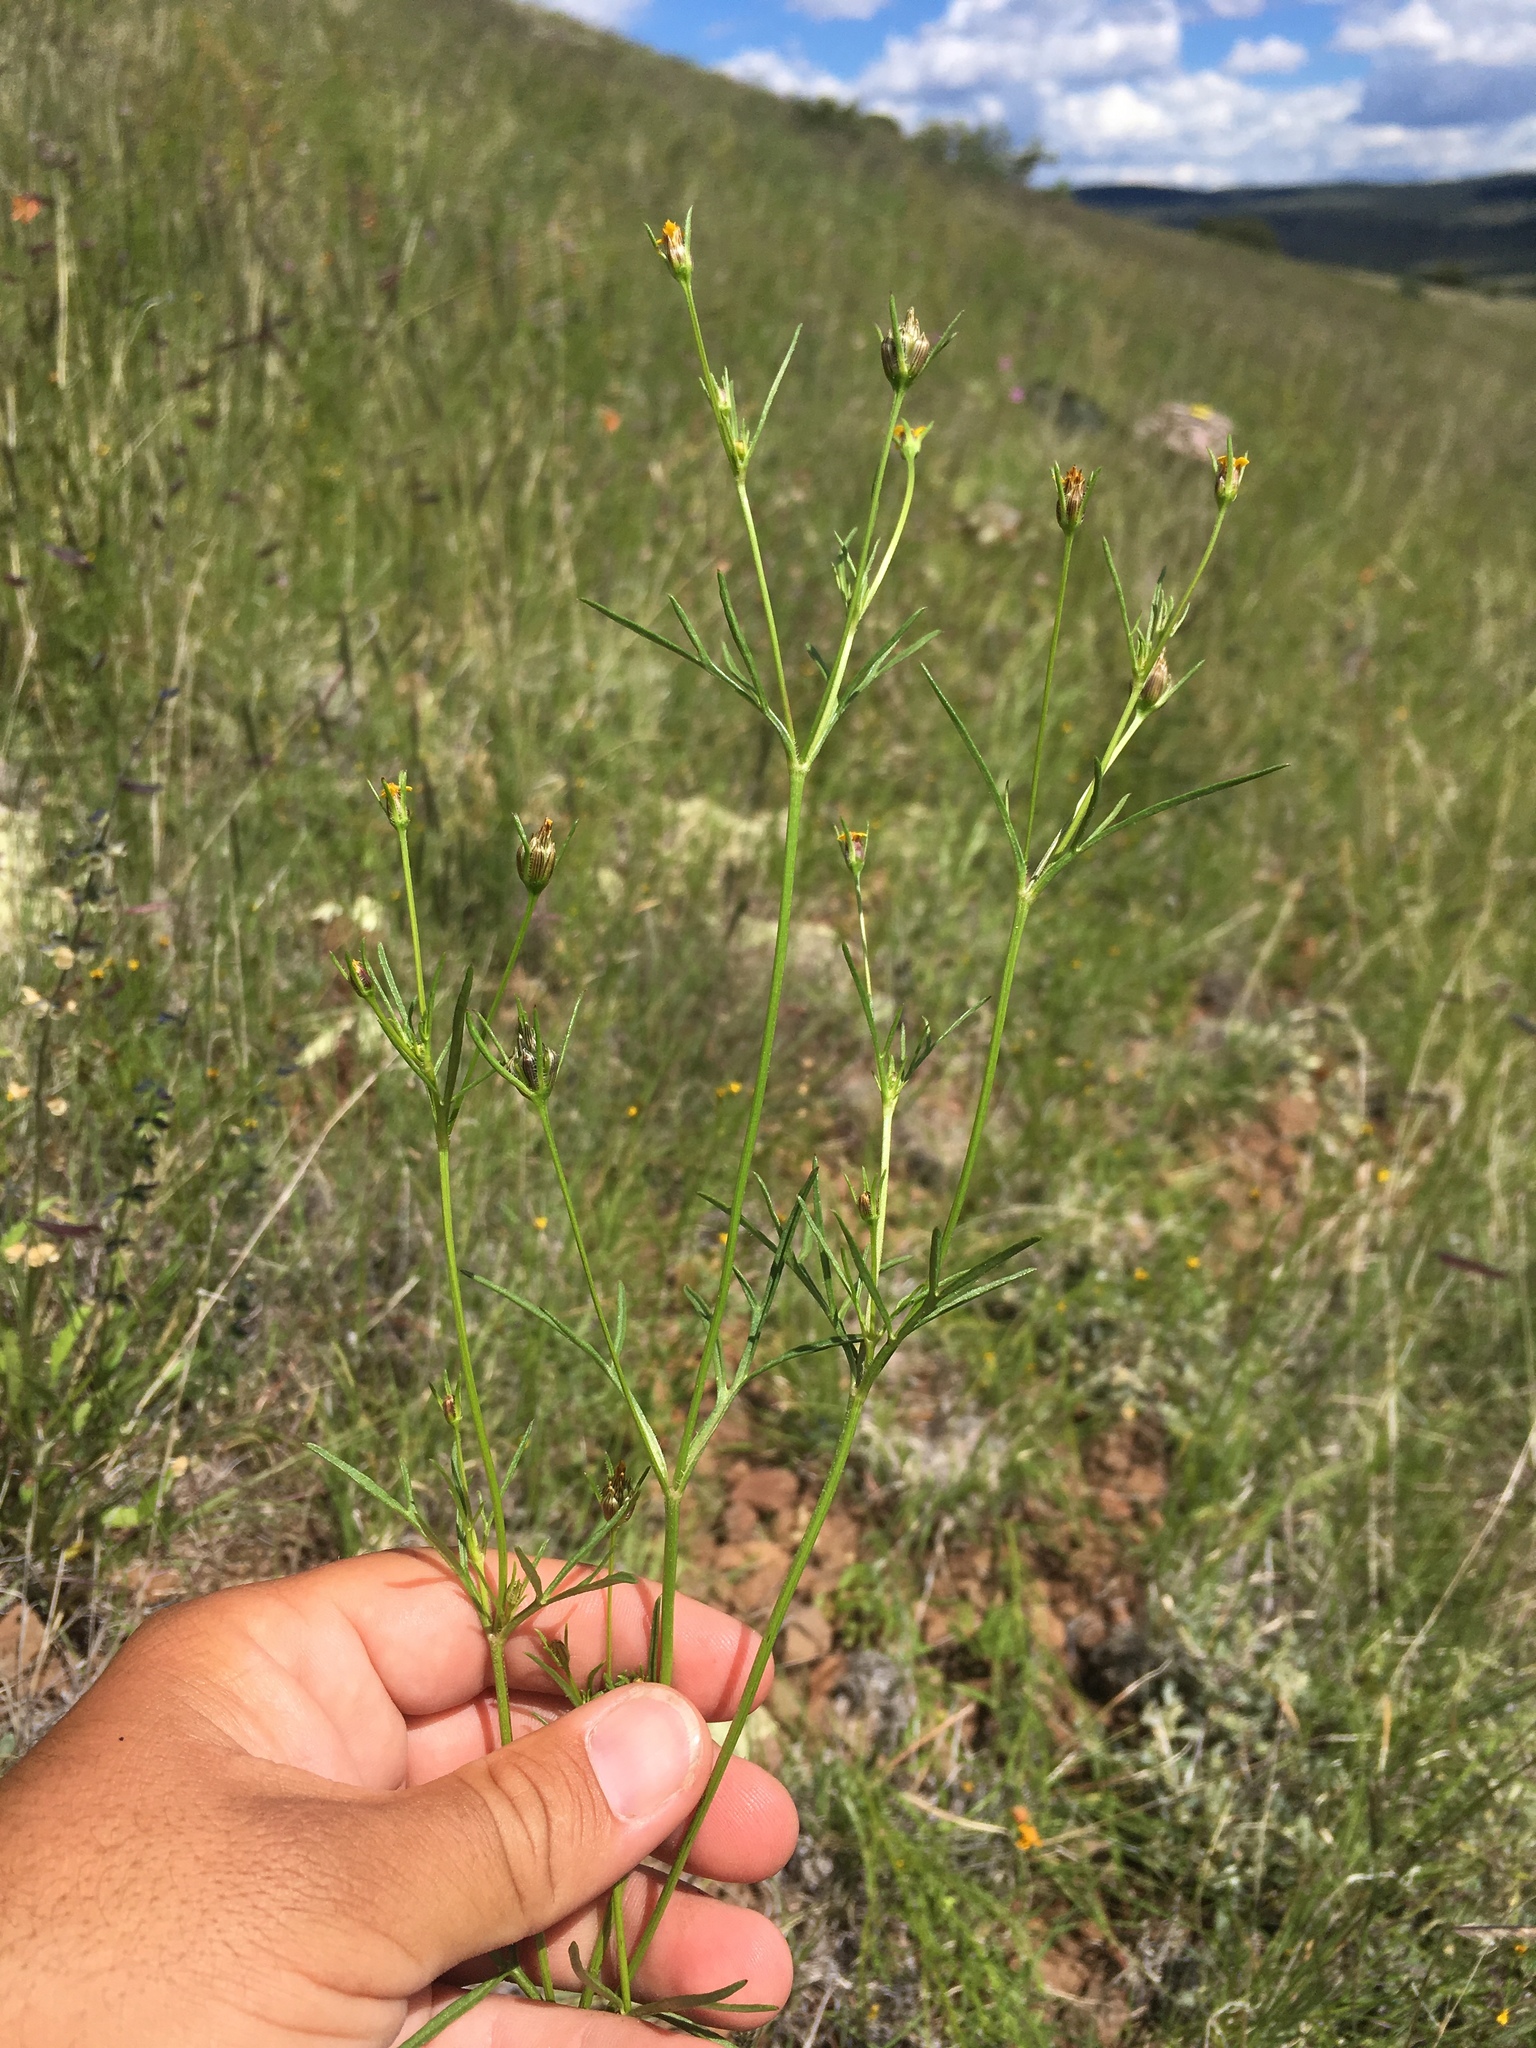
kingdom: Plantae
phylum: Tracheophyta
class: Magnoliopsida
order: Asterales
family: Asteraceae
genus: Heterosperma
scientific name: Heterosperma pinnatum
